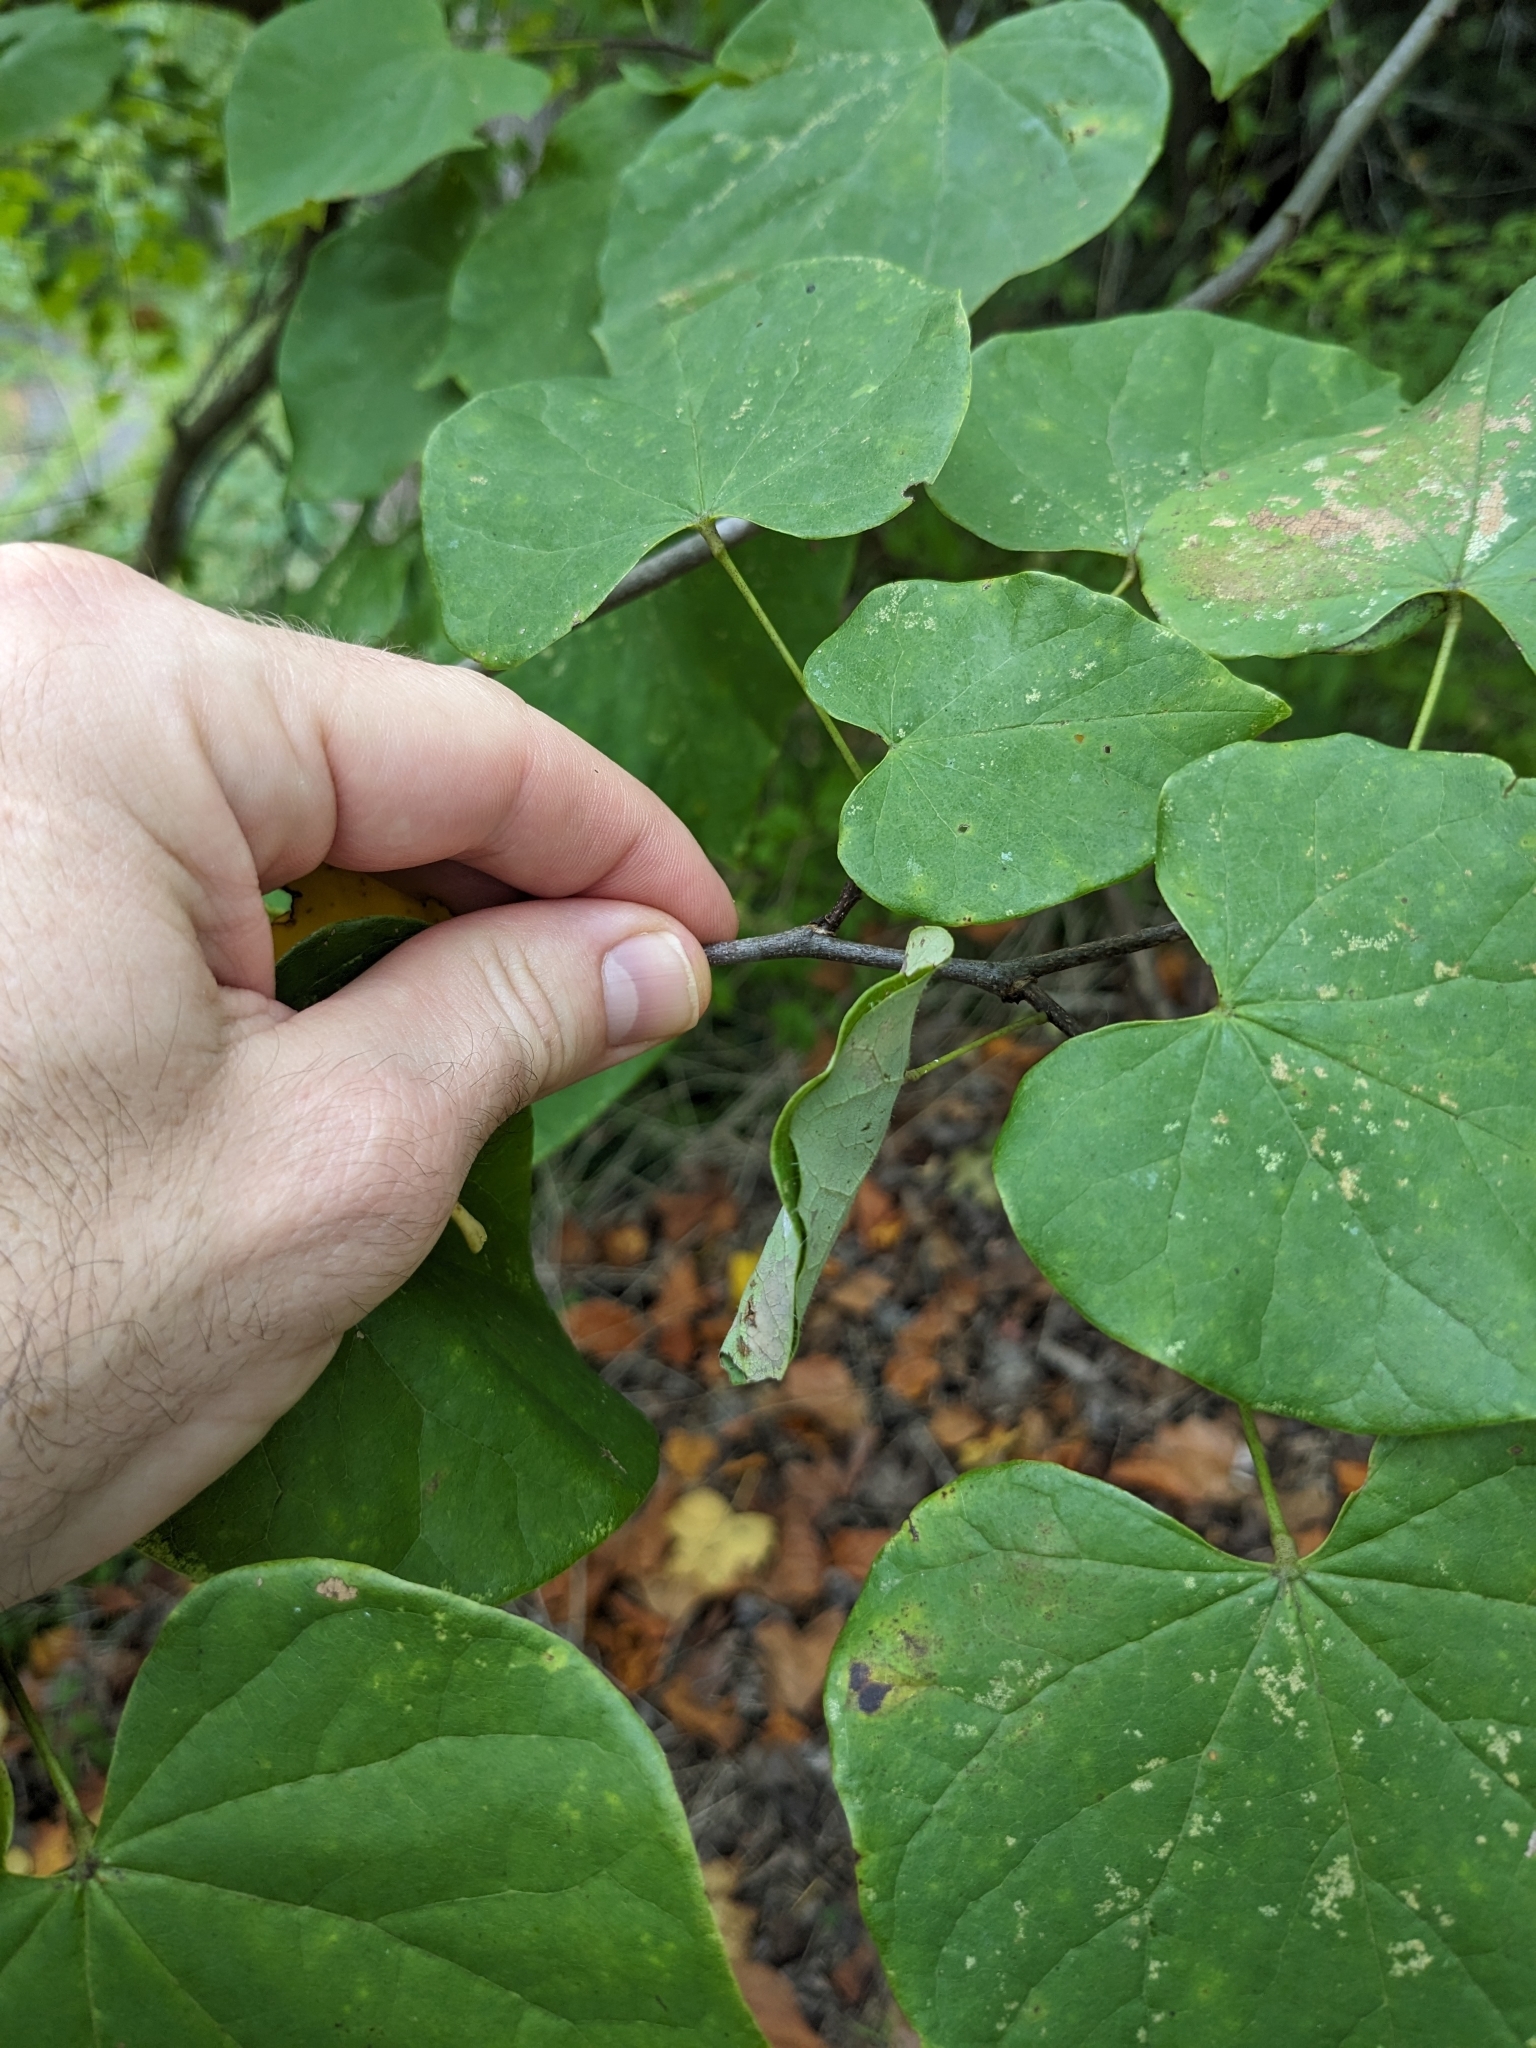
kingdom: Animalia
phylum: Arthropoda
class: Insecta
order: Lepidoptera
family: Gelechiidae
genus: Fascista
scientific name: Fascista cercerisella
